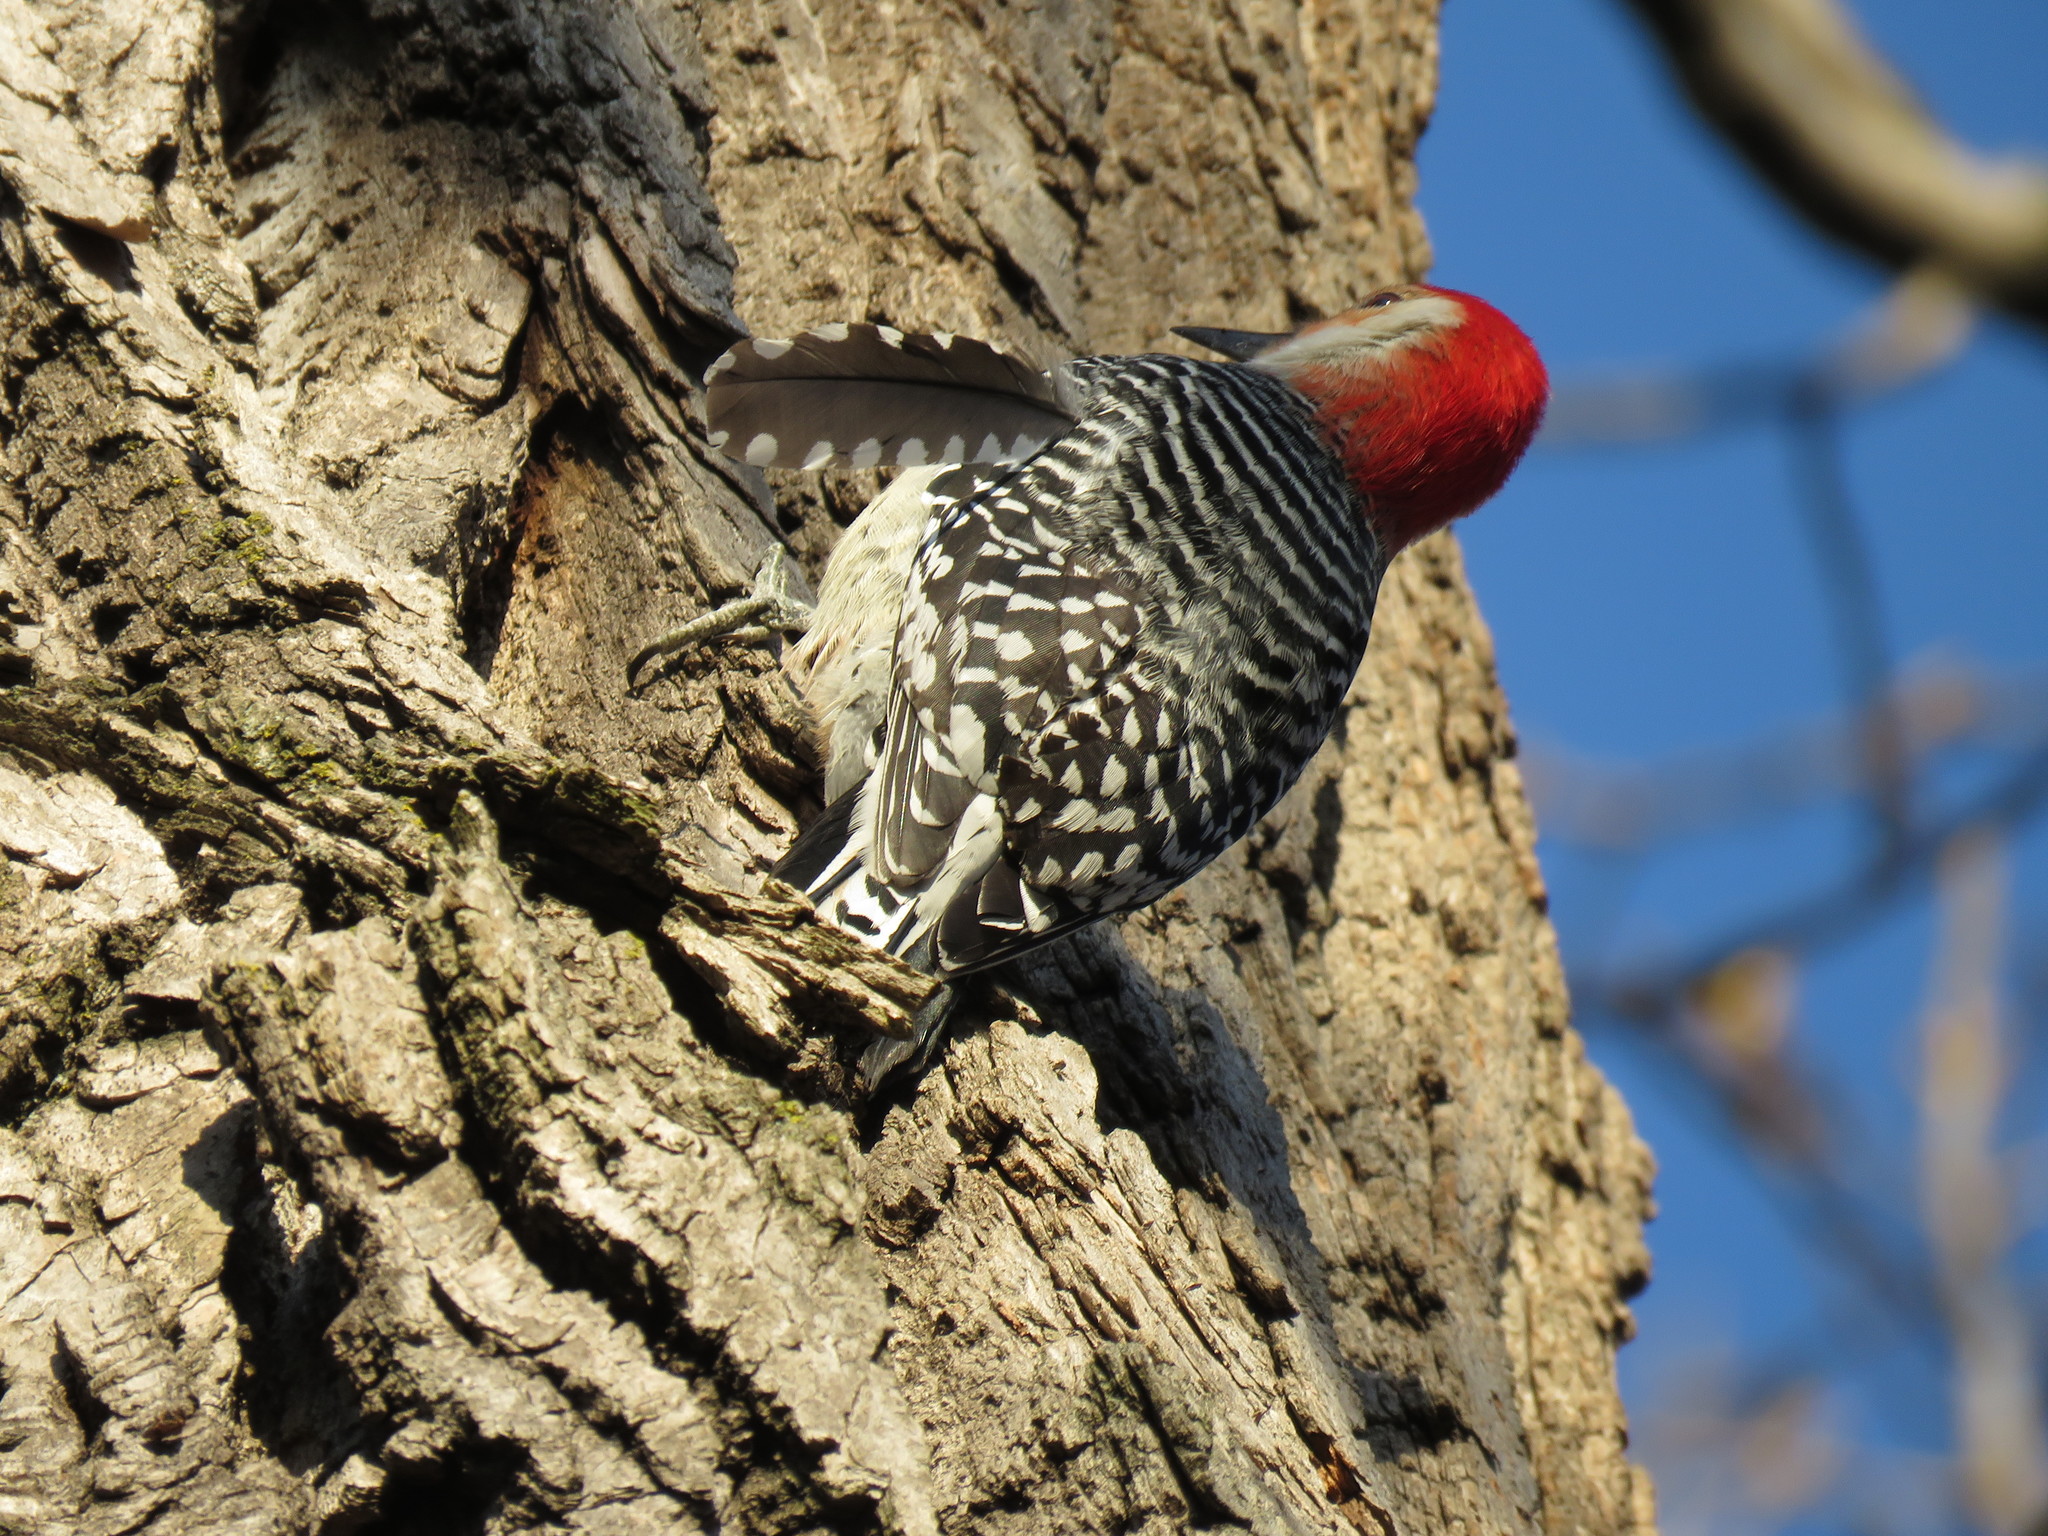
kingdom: Animalia
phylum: Chordata
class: Aves
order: Piciformes
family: Picidae
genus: Melanerpes
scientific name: Melanerpes carolinus
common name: Red-bellied woodpecker
